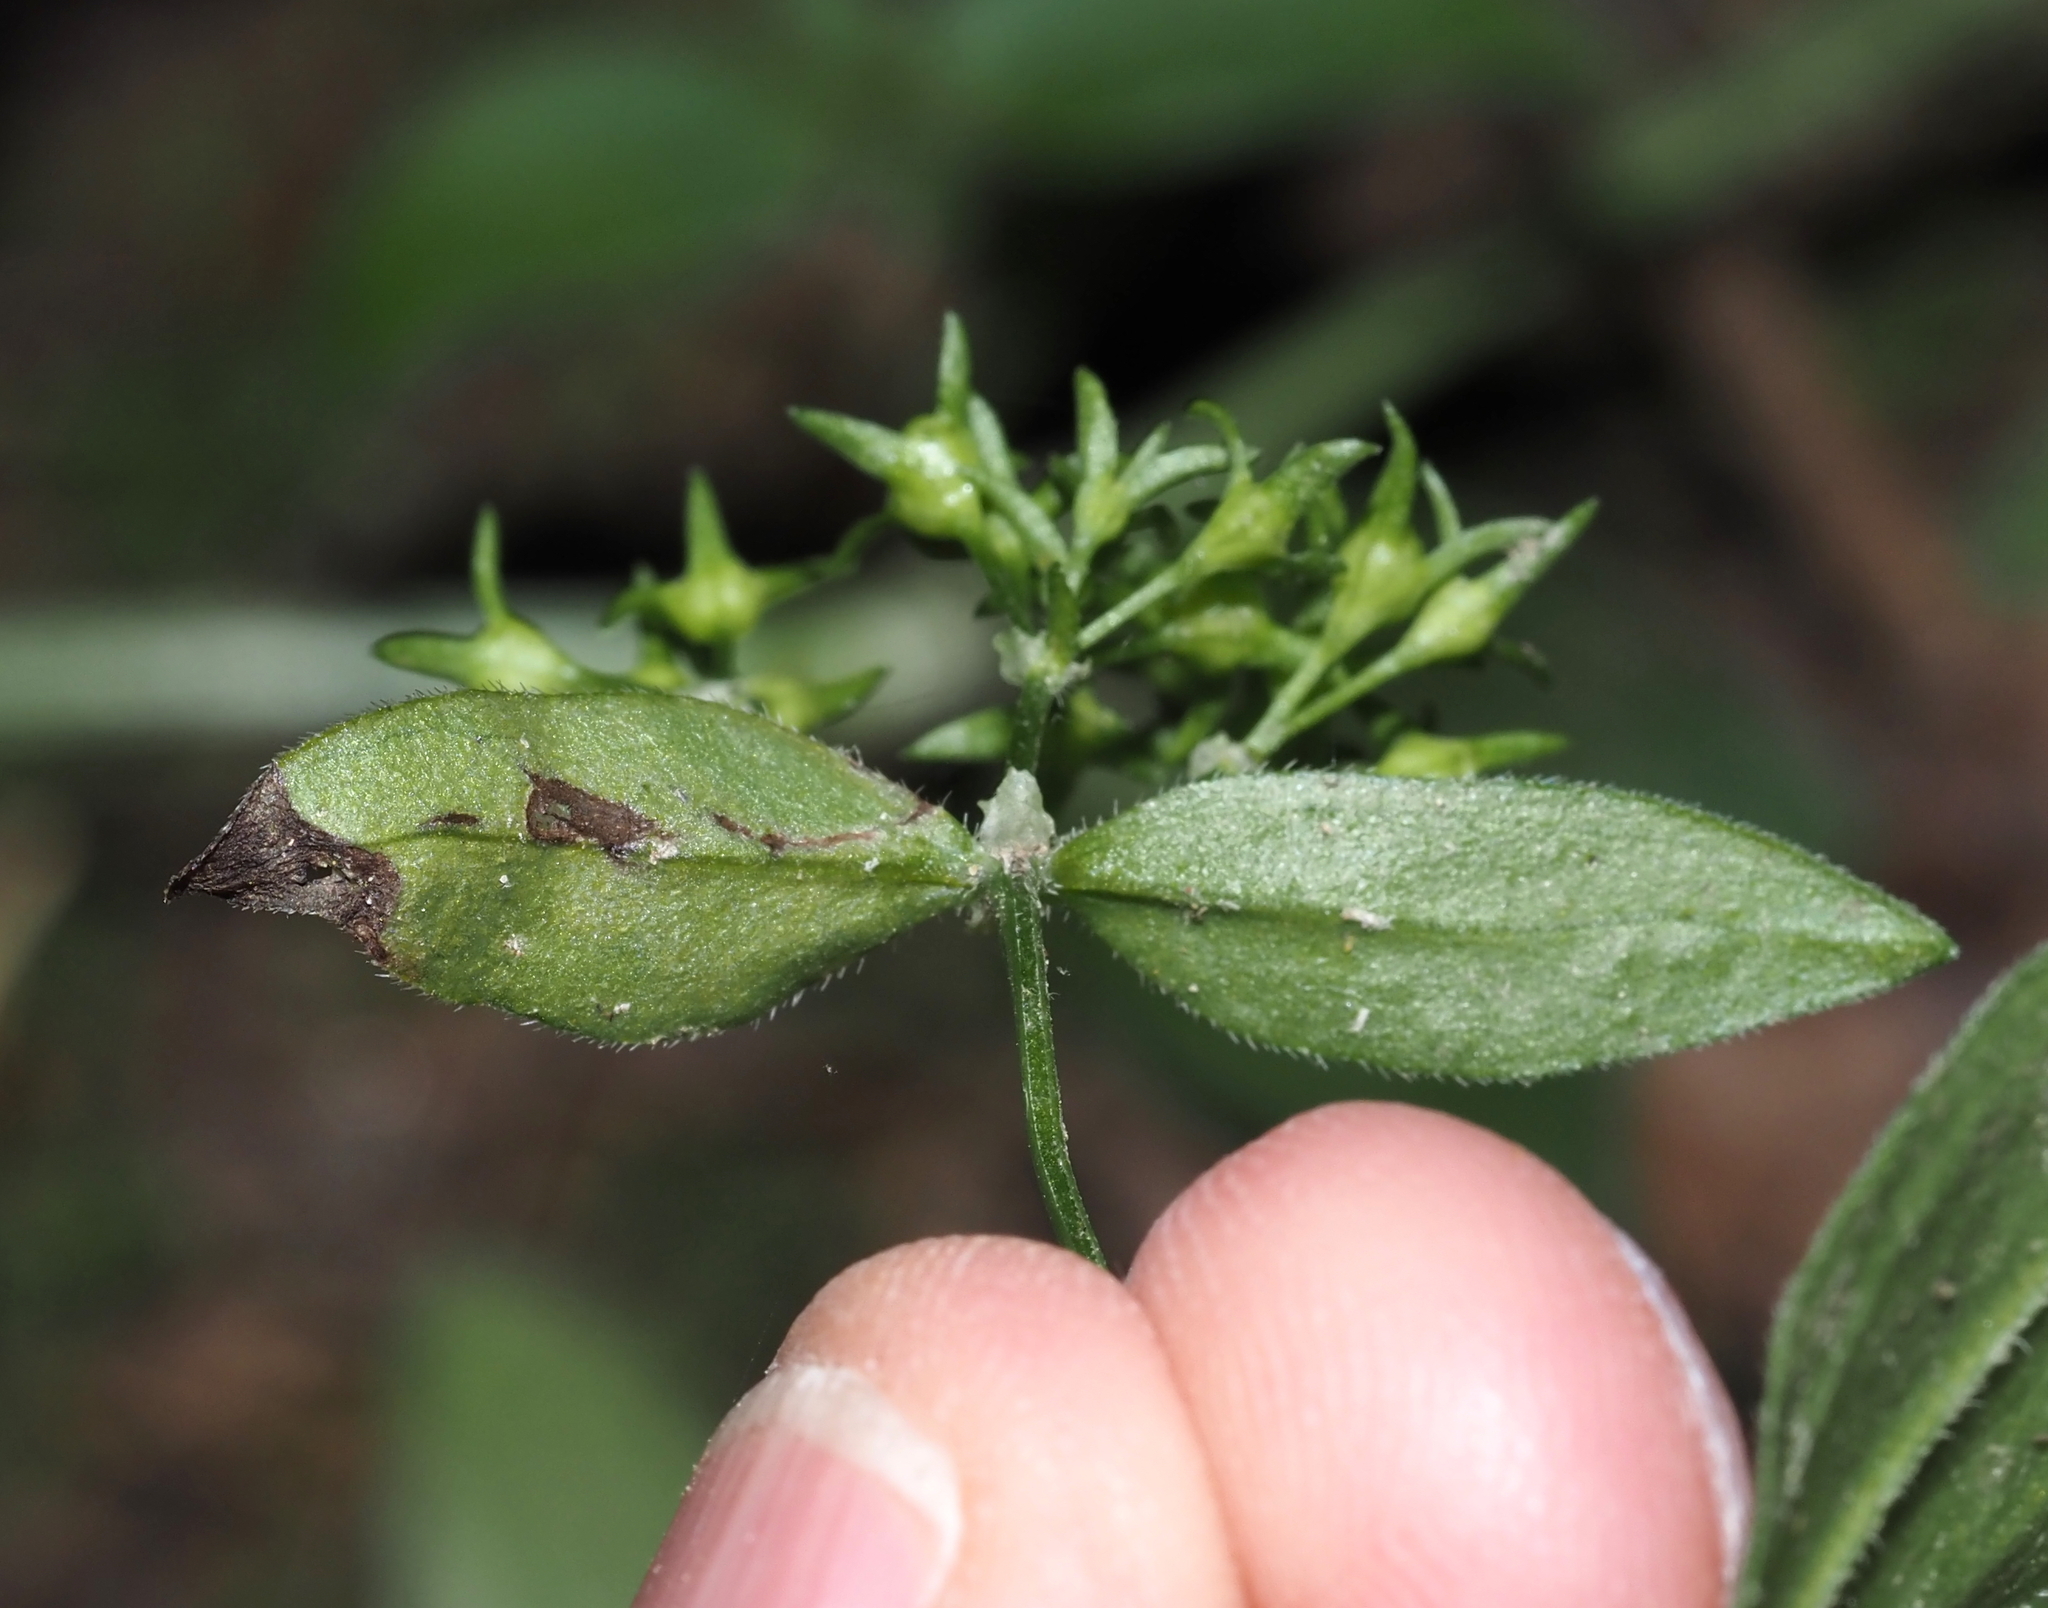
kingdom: Animalia
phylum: Arthropoda
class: Insecta
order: Diptera
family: Agromyzidae
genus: Liriomyza
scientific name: Liriomyza galiivora
